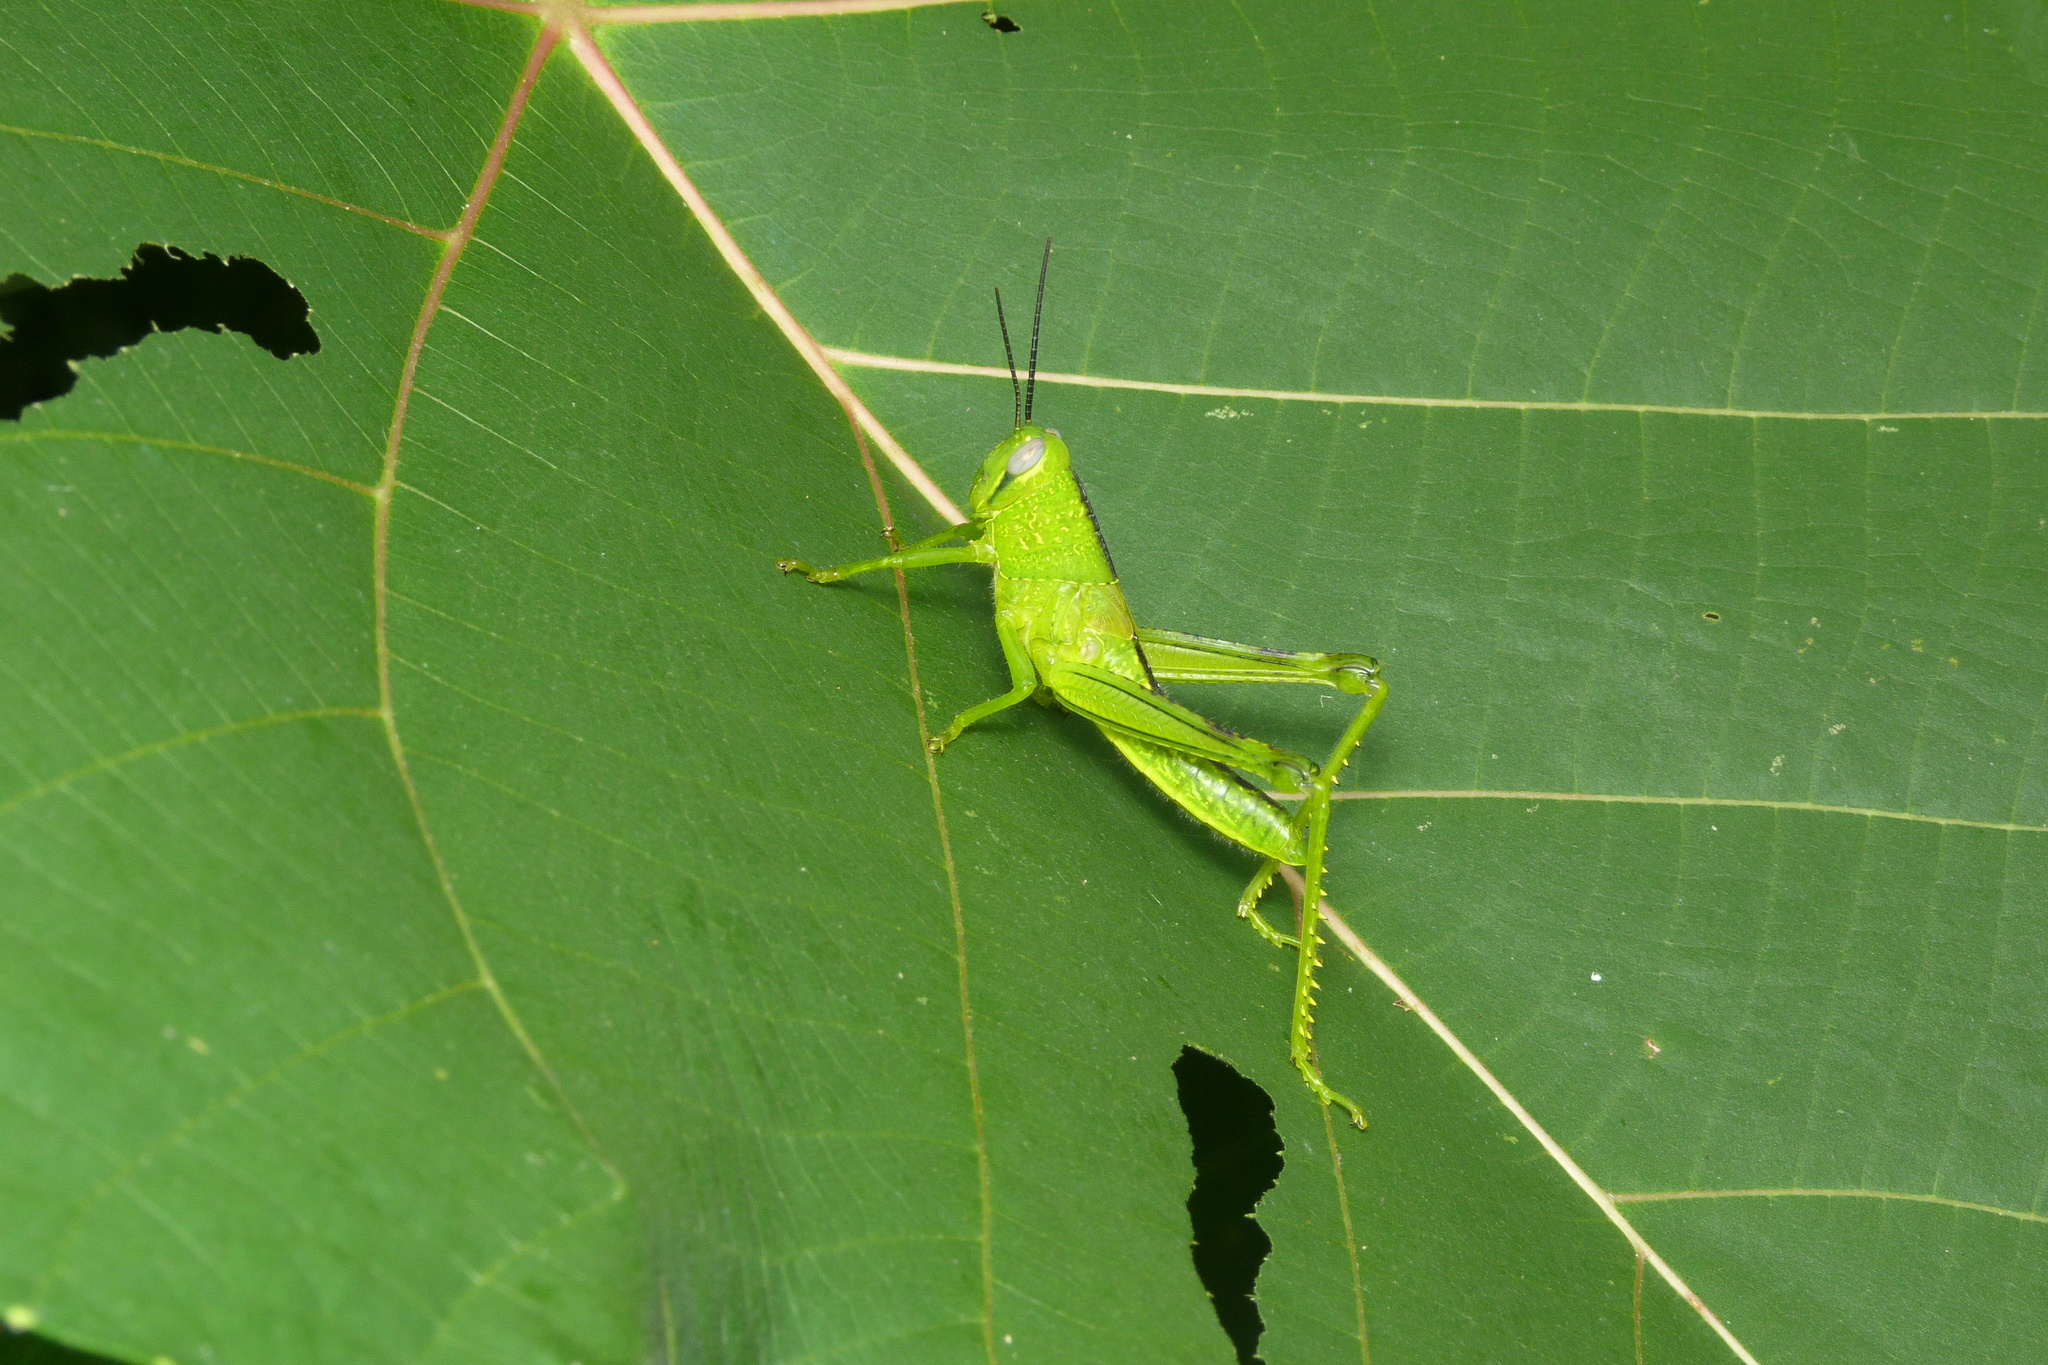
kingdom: Animalia
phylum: Arthropoda
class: Insecta
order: Orthoptera
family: Acrididae
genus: Valanga
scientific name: Valanga irregularis
